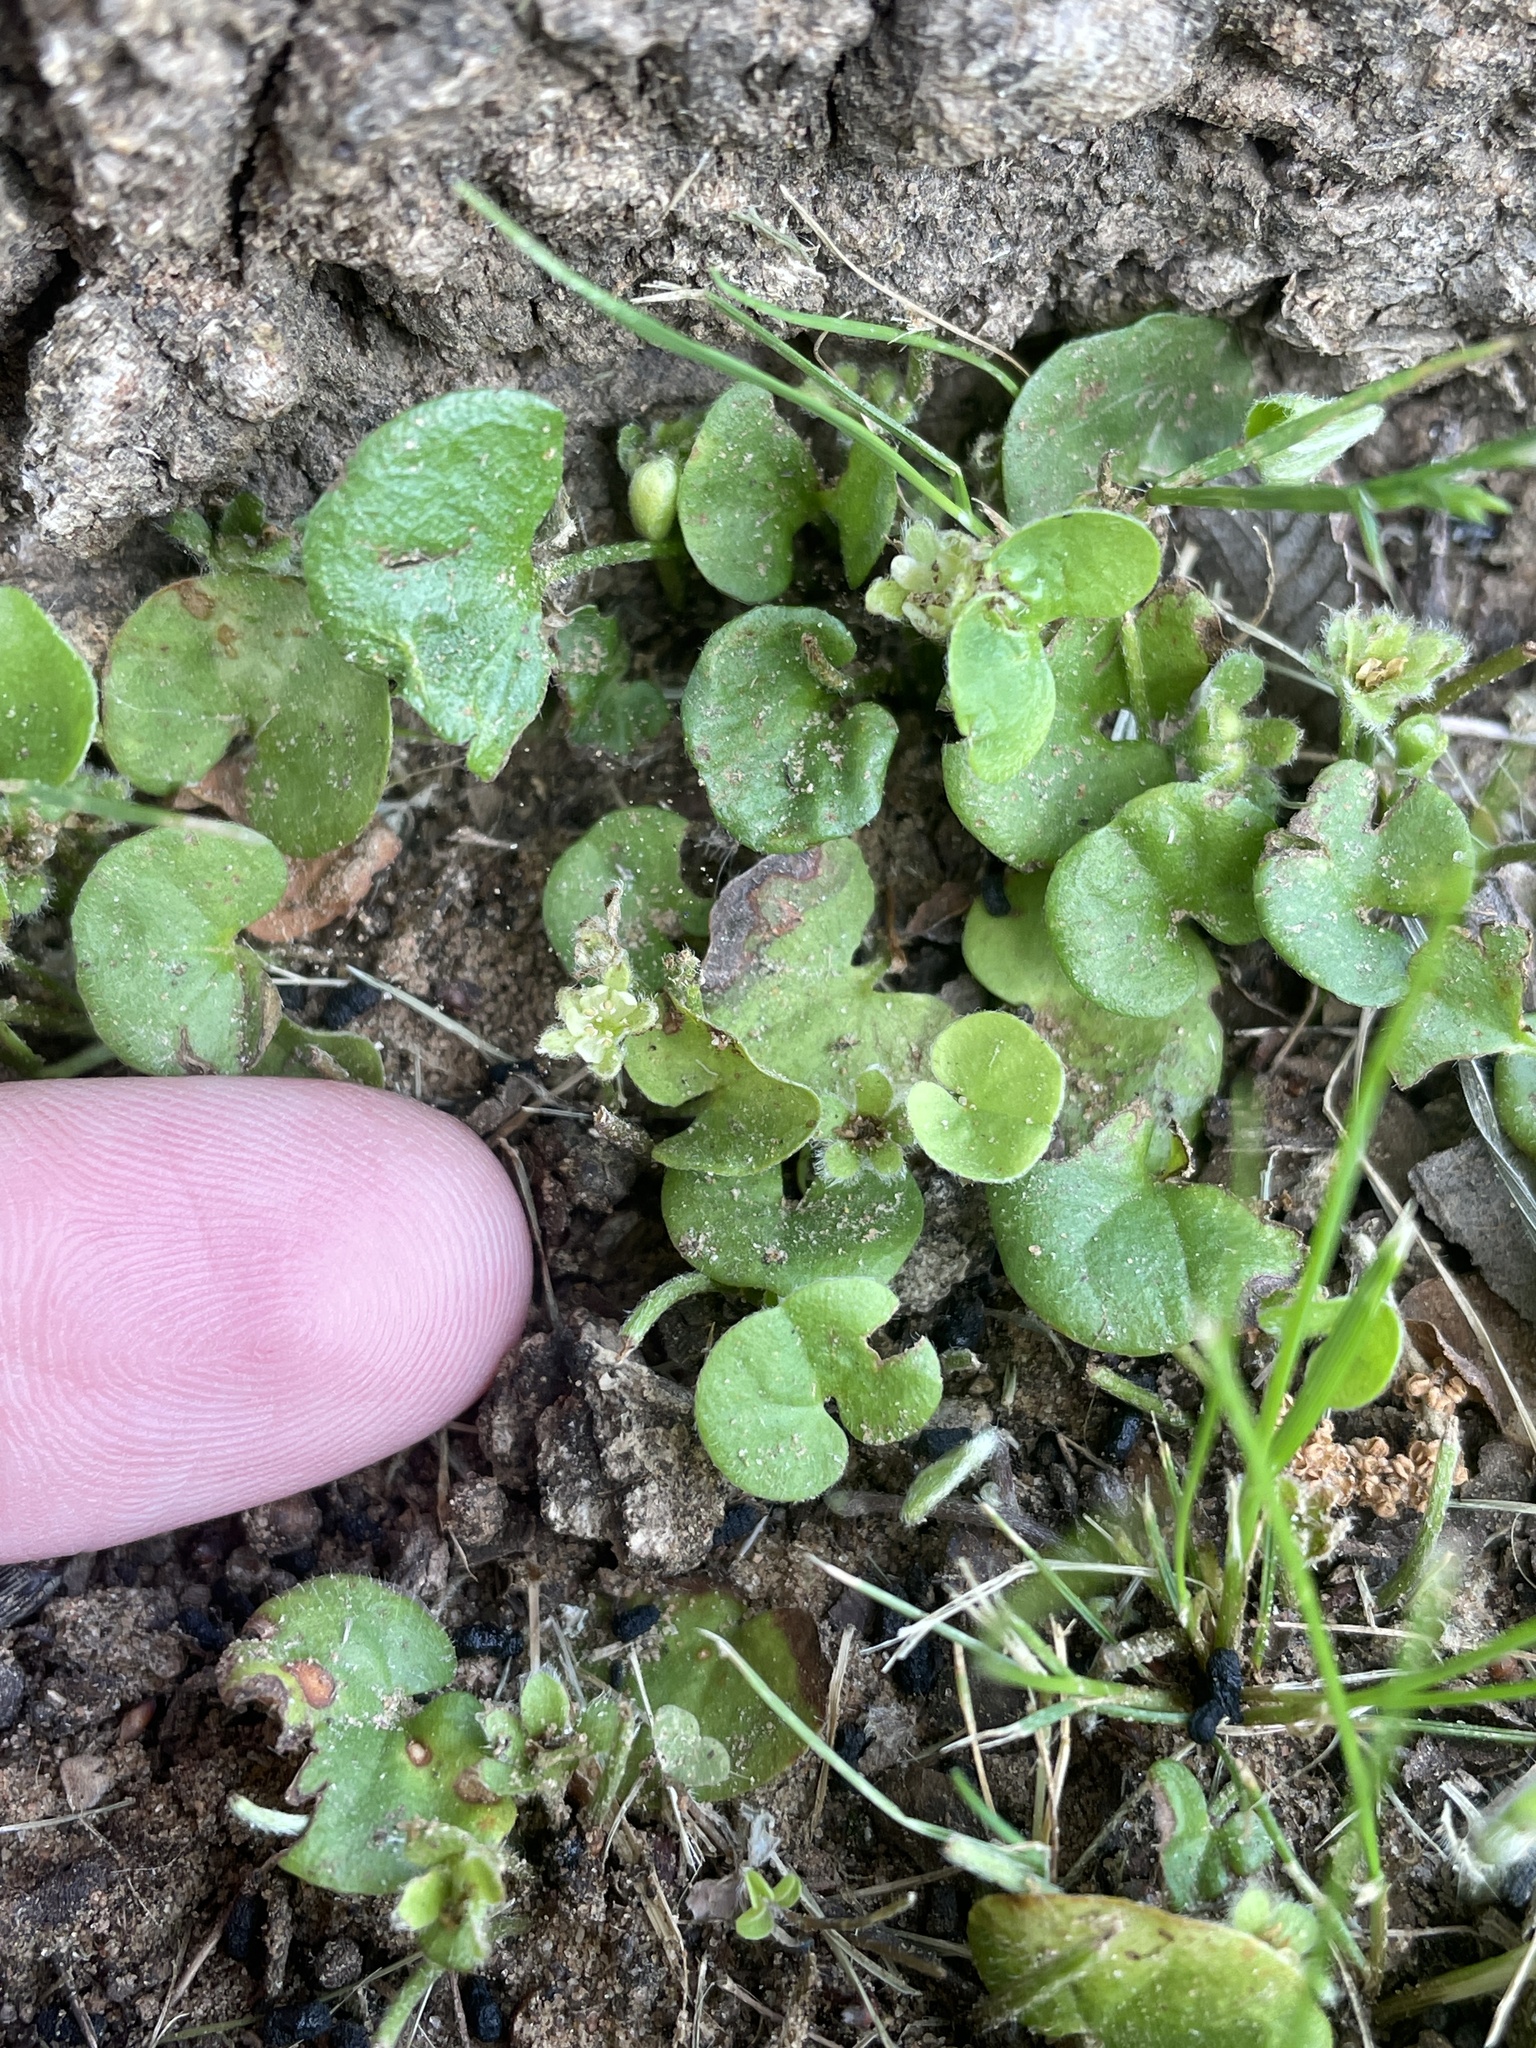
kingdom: Plantae
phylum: Tracheophyta
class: Magnoliopsida
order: Solanales
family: Convolvulaceae
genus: Dichondra
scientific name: Dichondra carolinensis
